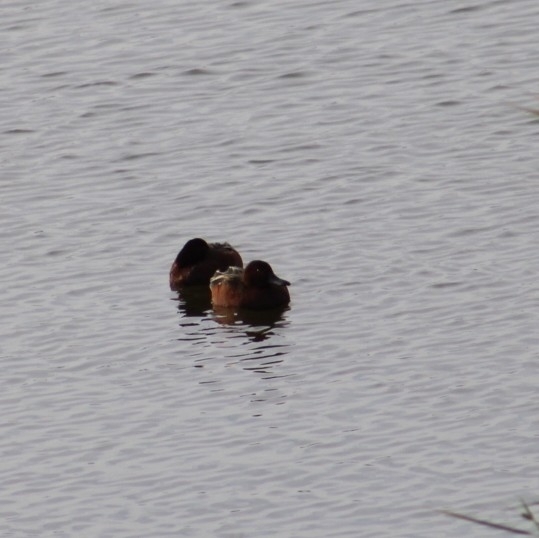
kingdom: Animalia
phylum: Chordata
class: Aves
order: Anseriformes
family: Anatidae
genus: Spatula
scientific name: Spatula cyanoptera
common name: Cinnamon teal
